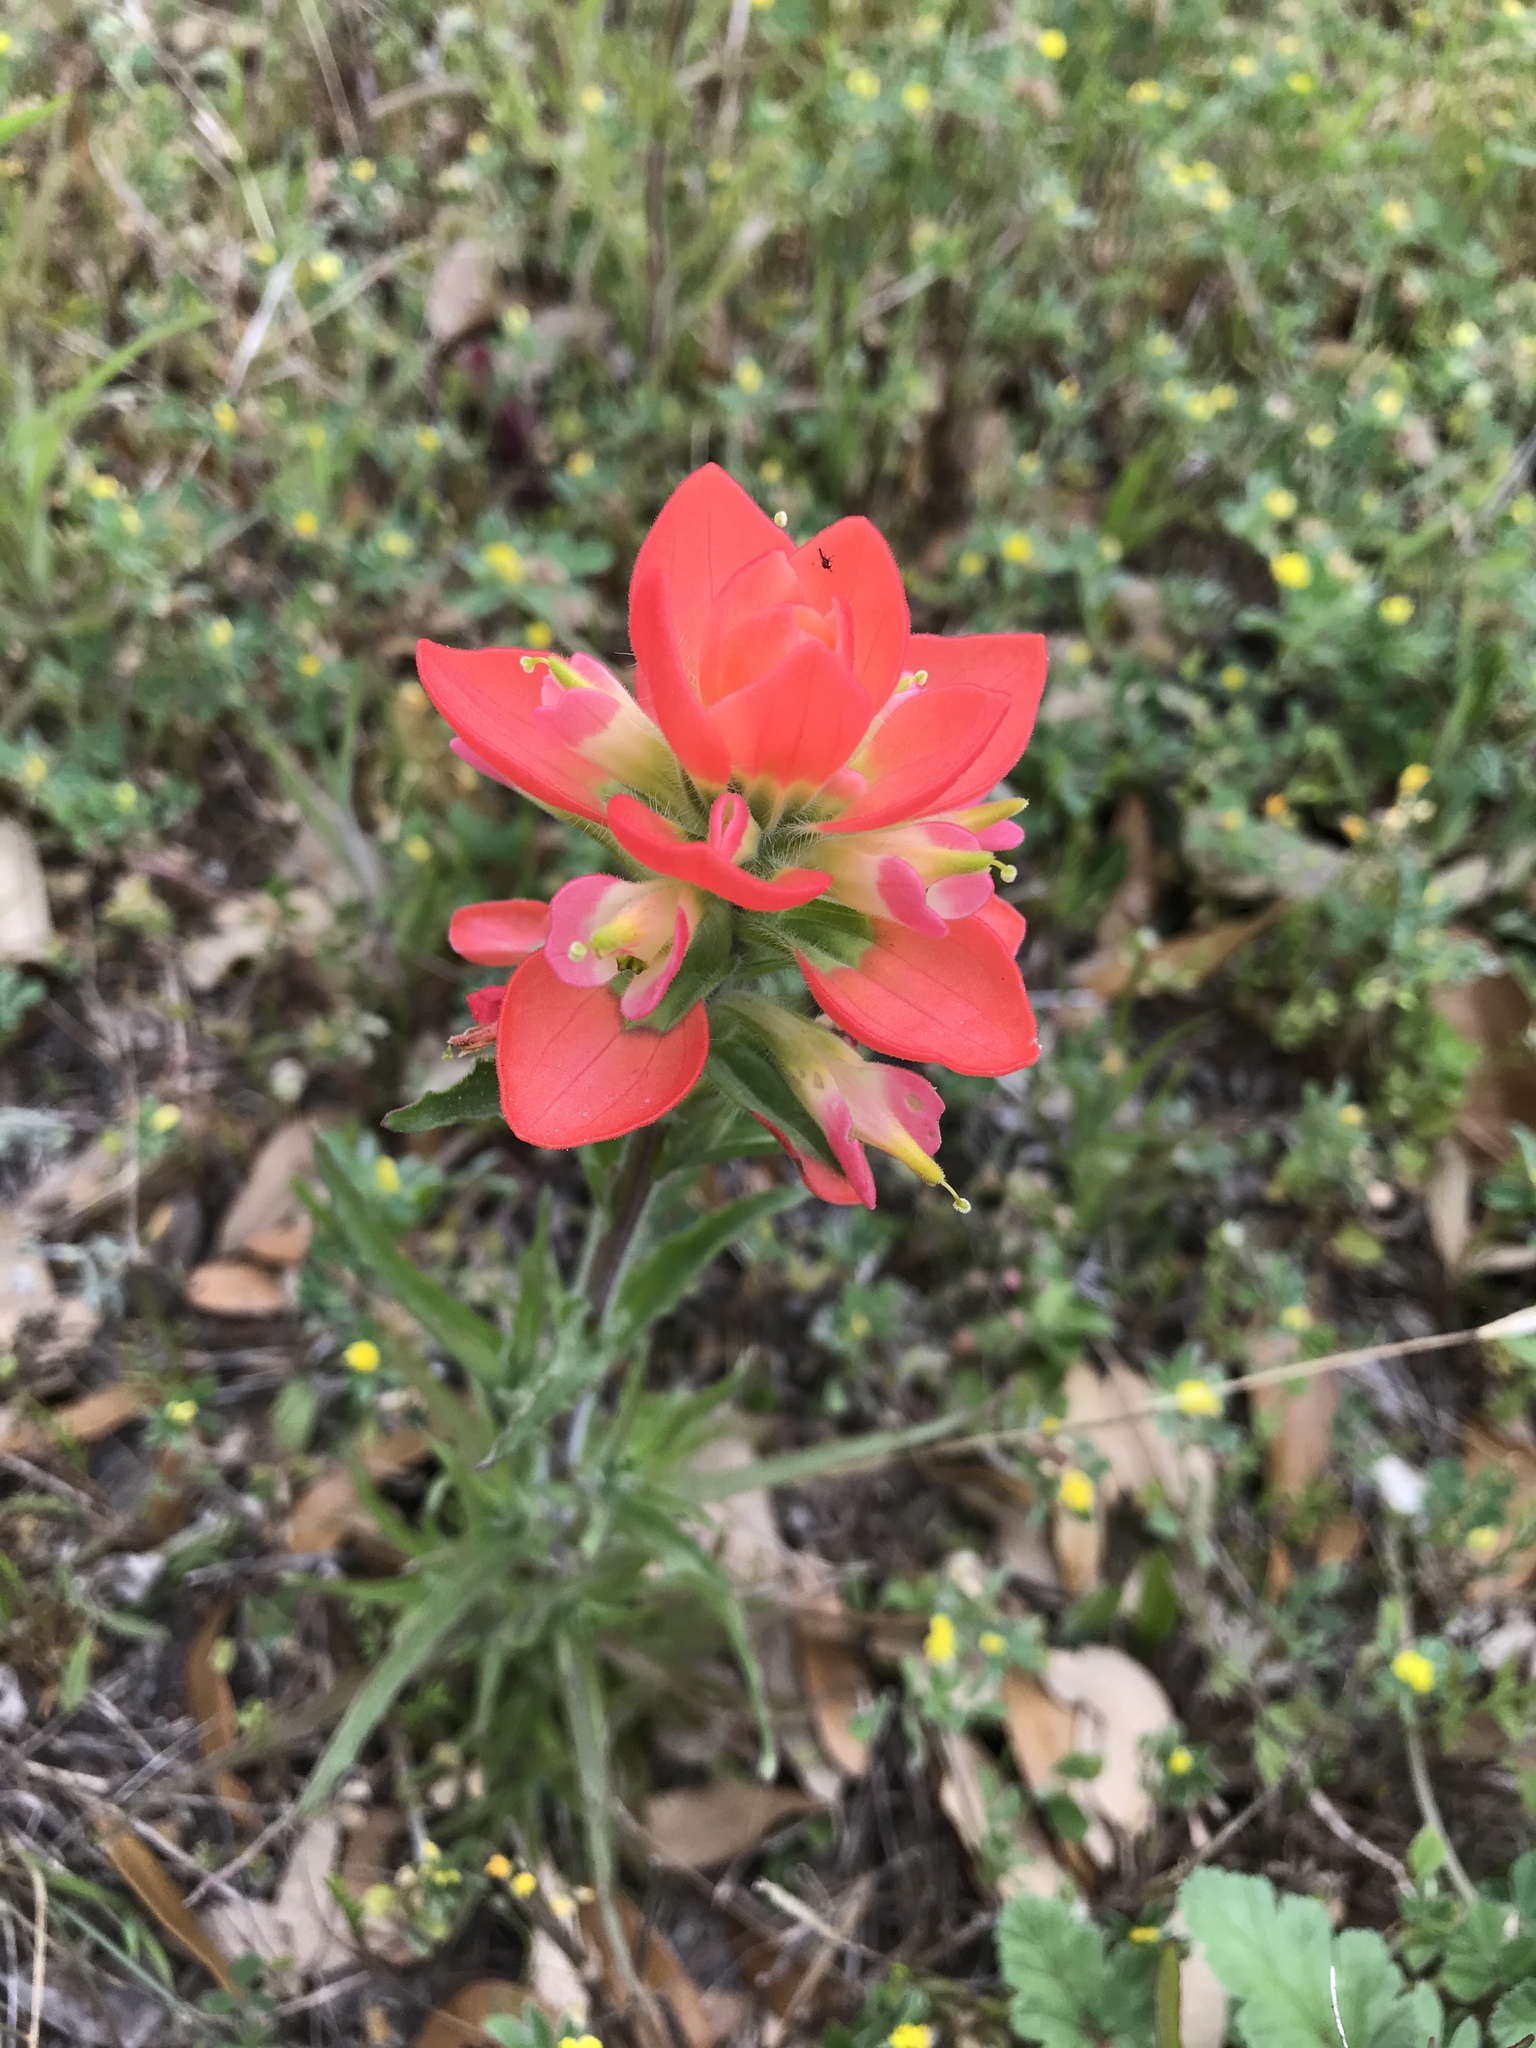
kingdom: Plantae
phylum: Tracheophyta
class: Magnoliopsida
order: Lamiales
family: Orobanchaceae
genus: Castilleja
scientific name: Castilleja indivisa
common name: Texas paintbrush
